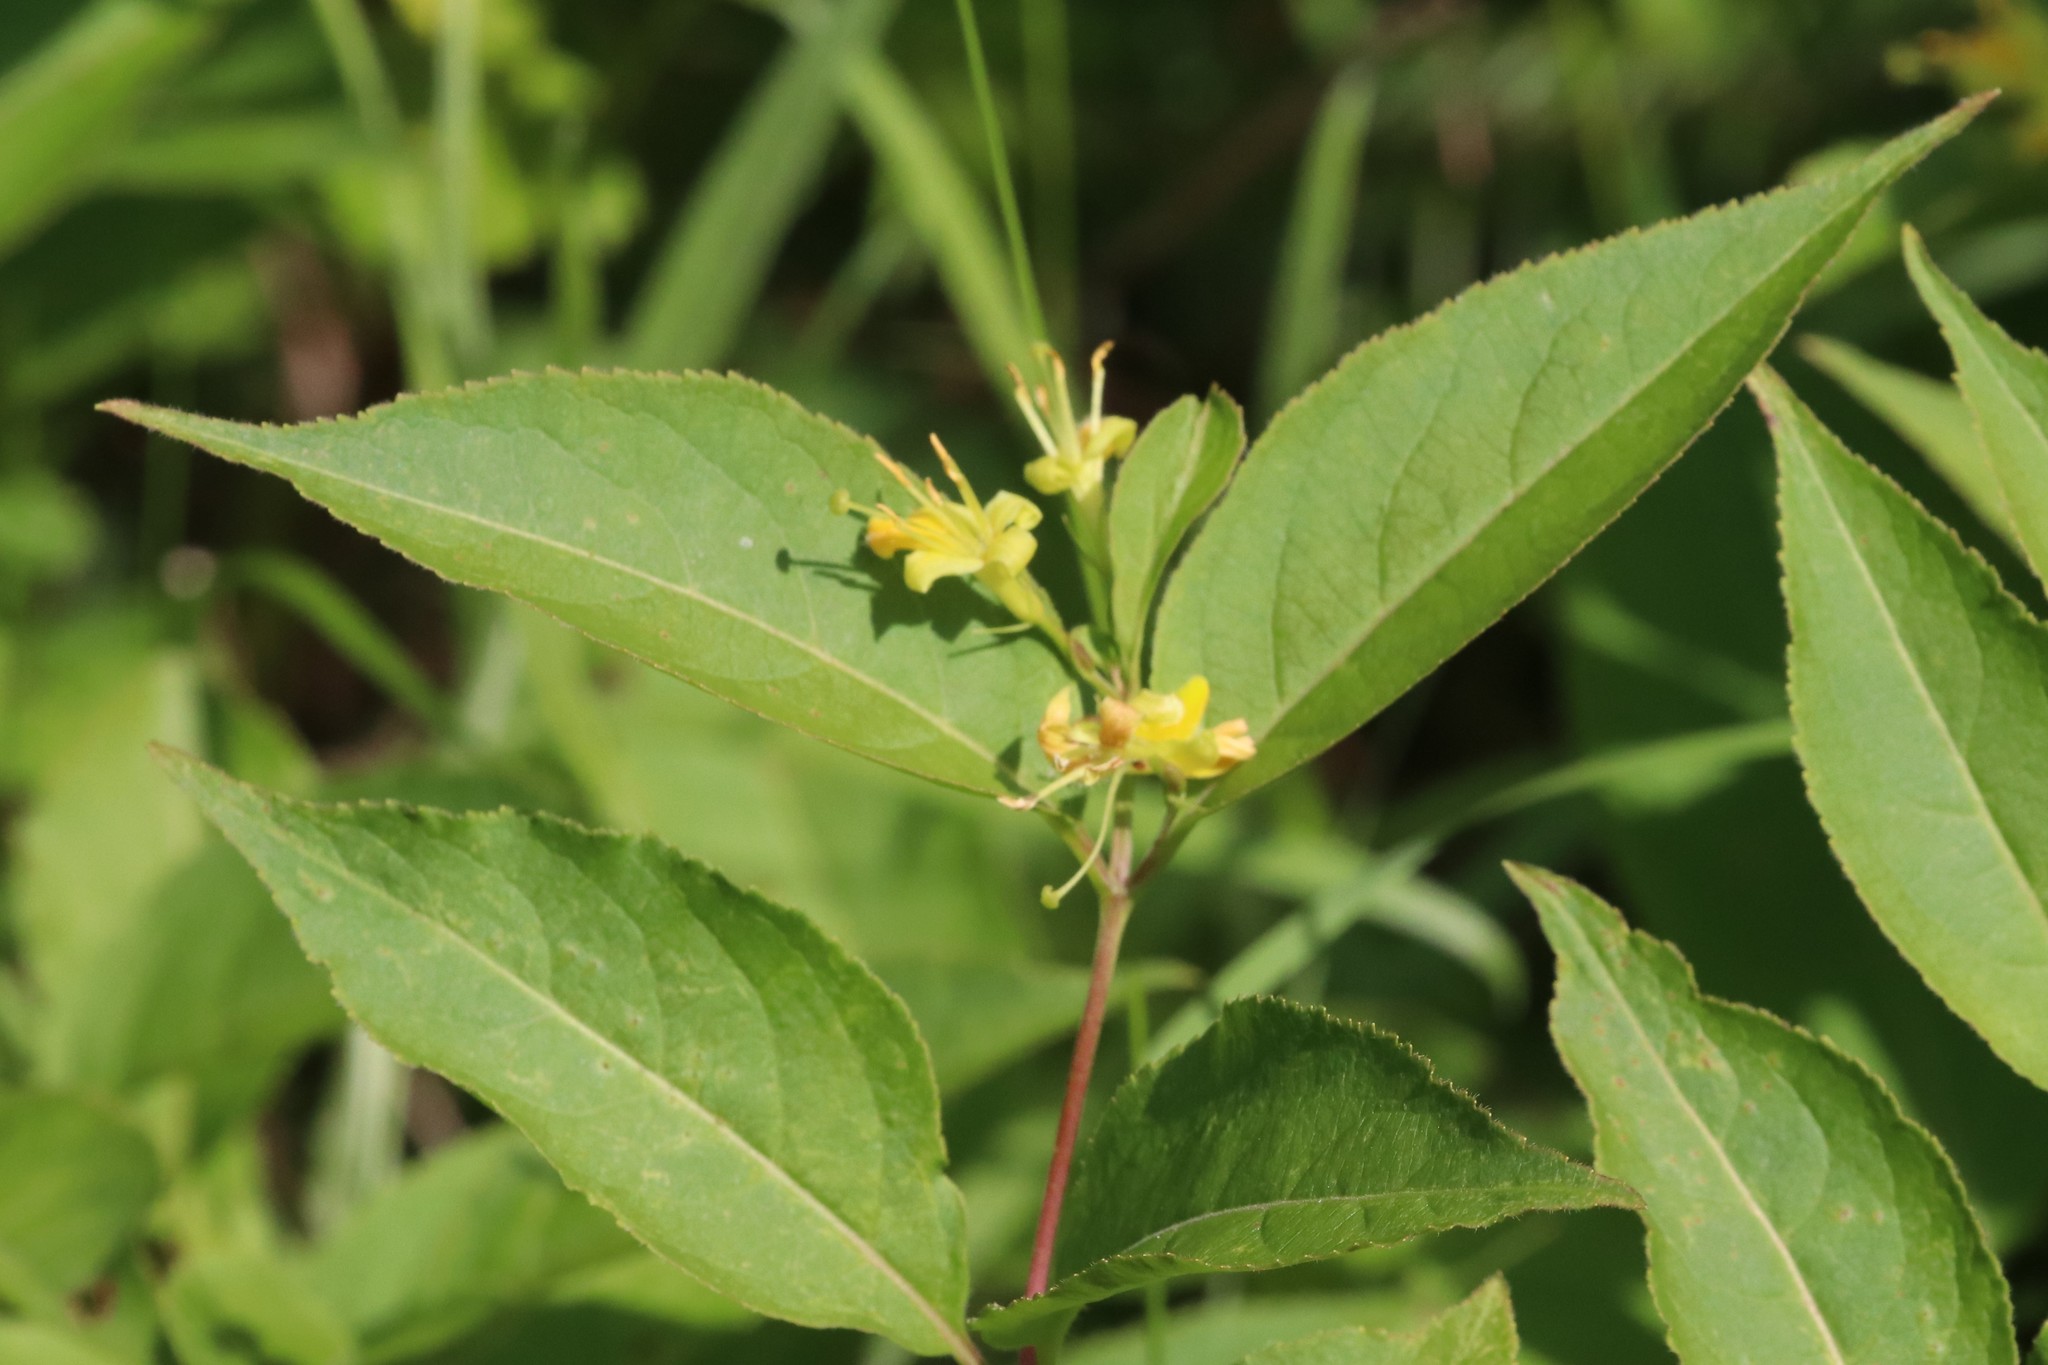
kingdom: Plantae
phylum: Tracheophyta
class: Magnoliopsida
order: Dipsacales
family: Caprifoliaceae
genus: Diervilla
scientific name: Diervilla lonicera
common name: Bush-honeysuckle
